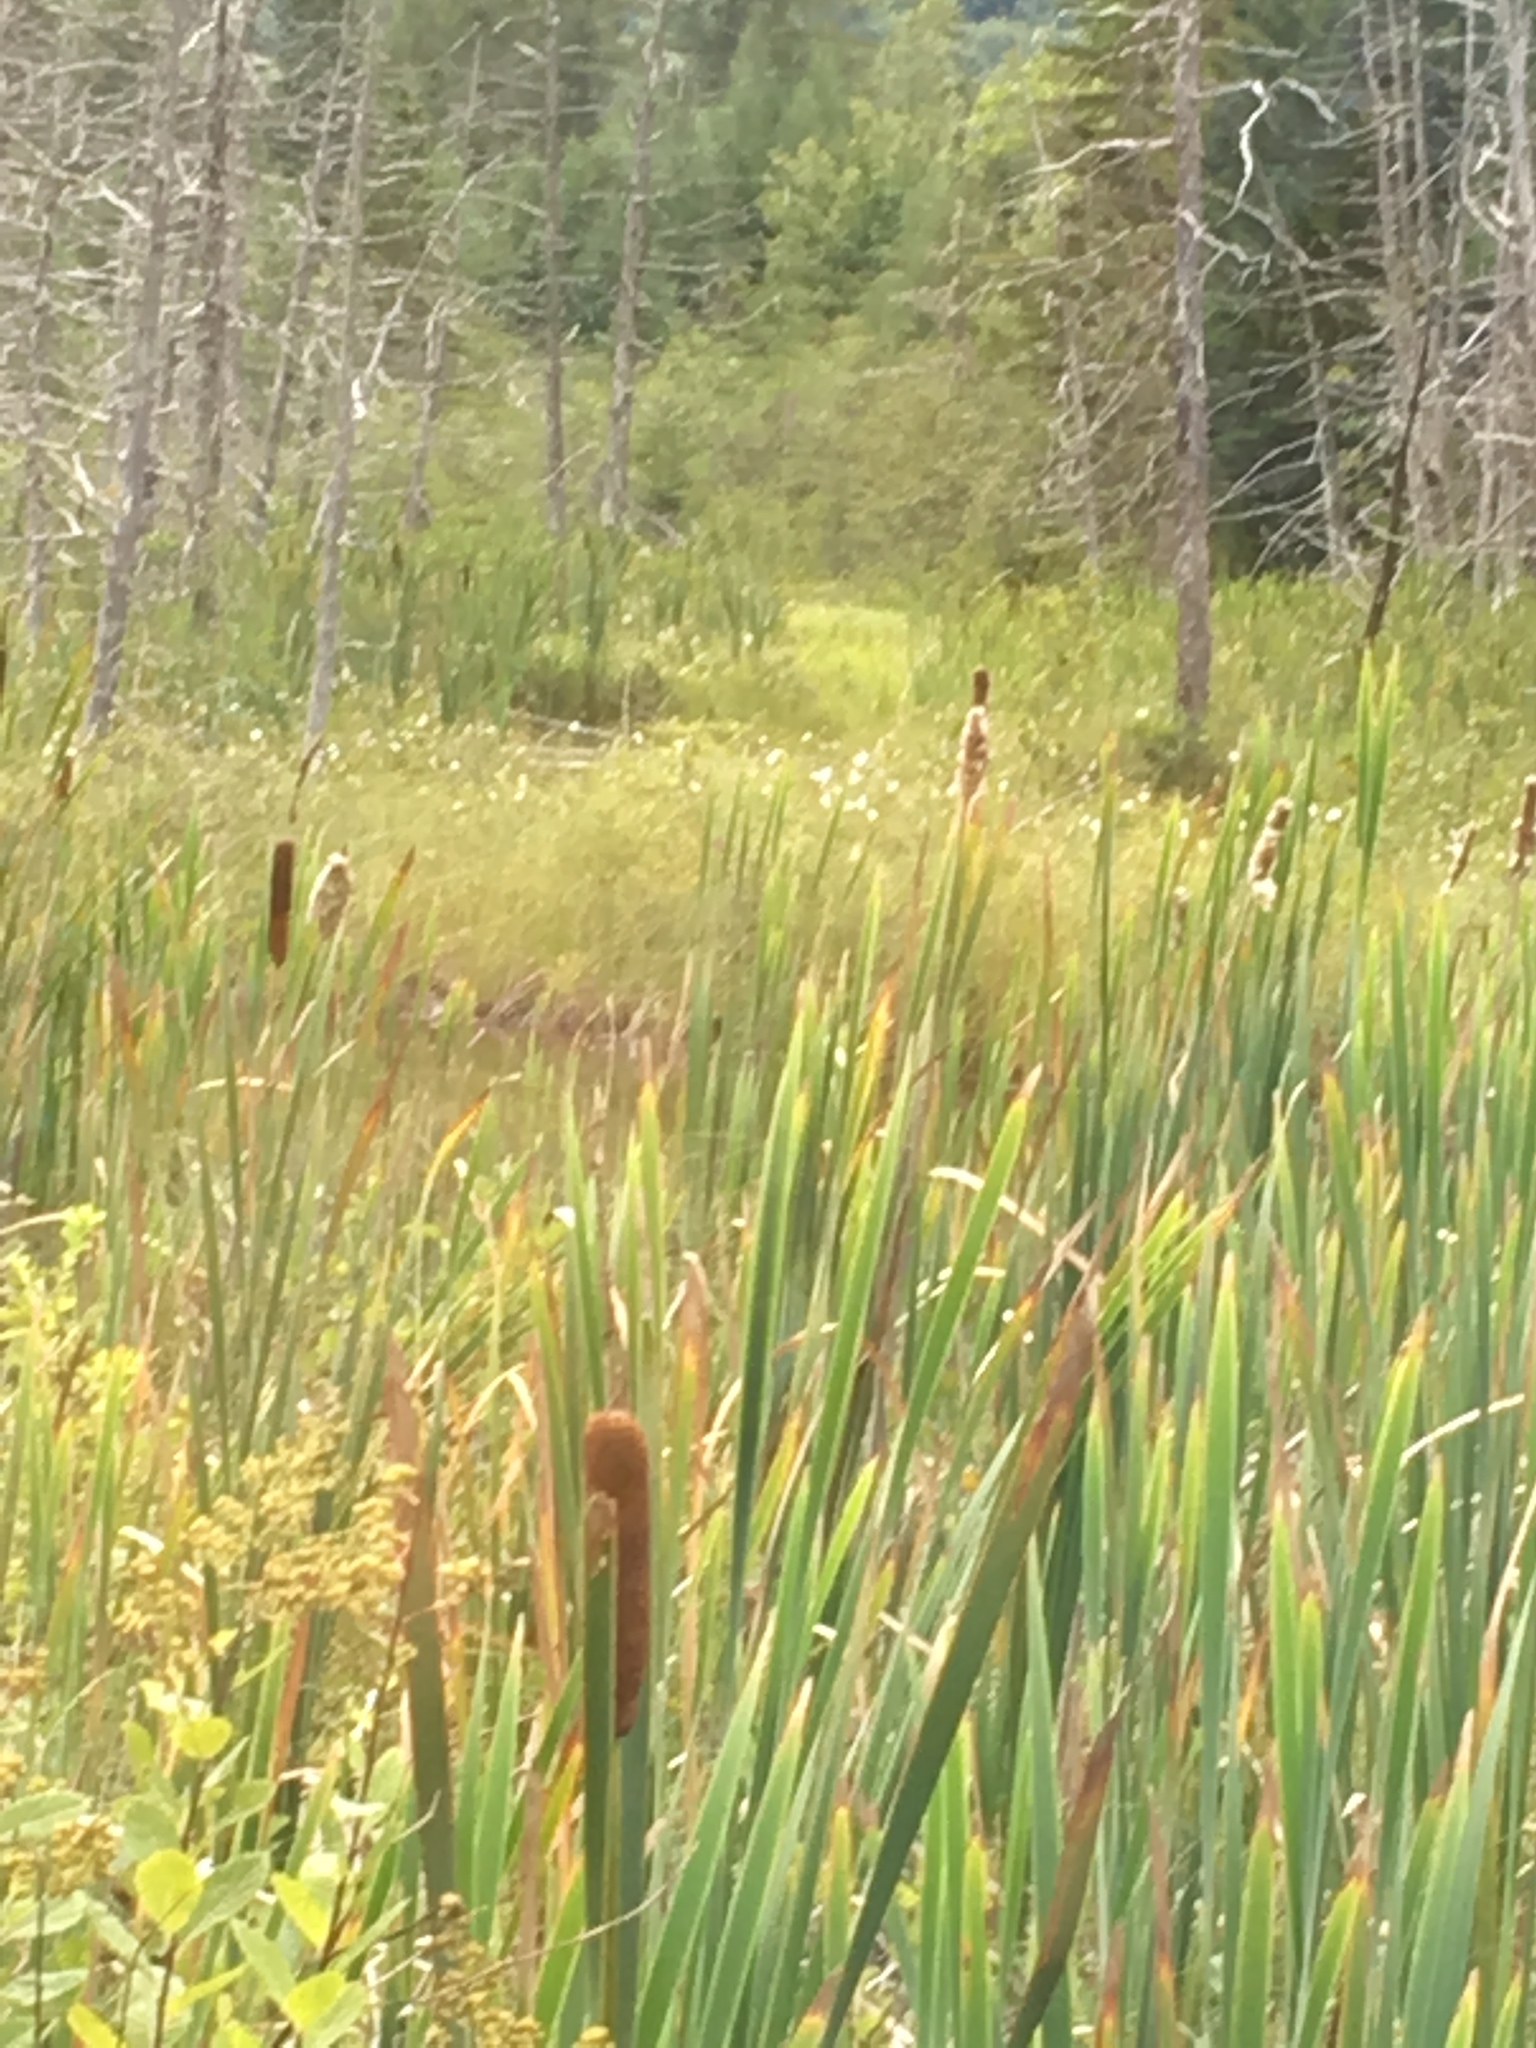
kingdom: Plantae
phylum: Tracheophyta
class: Liliopsida
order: Poales
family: Typhaceae
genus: Typha
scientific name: Typha latifolia
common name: Broadleaf cattail
